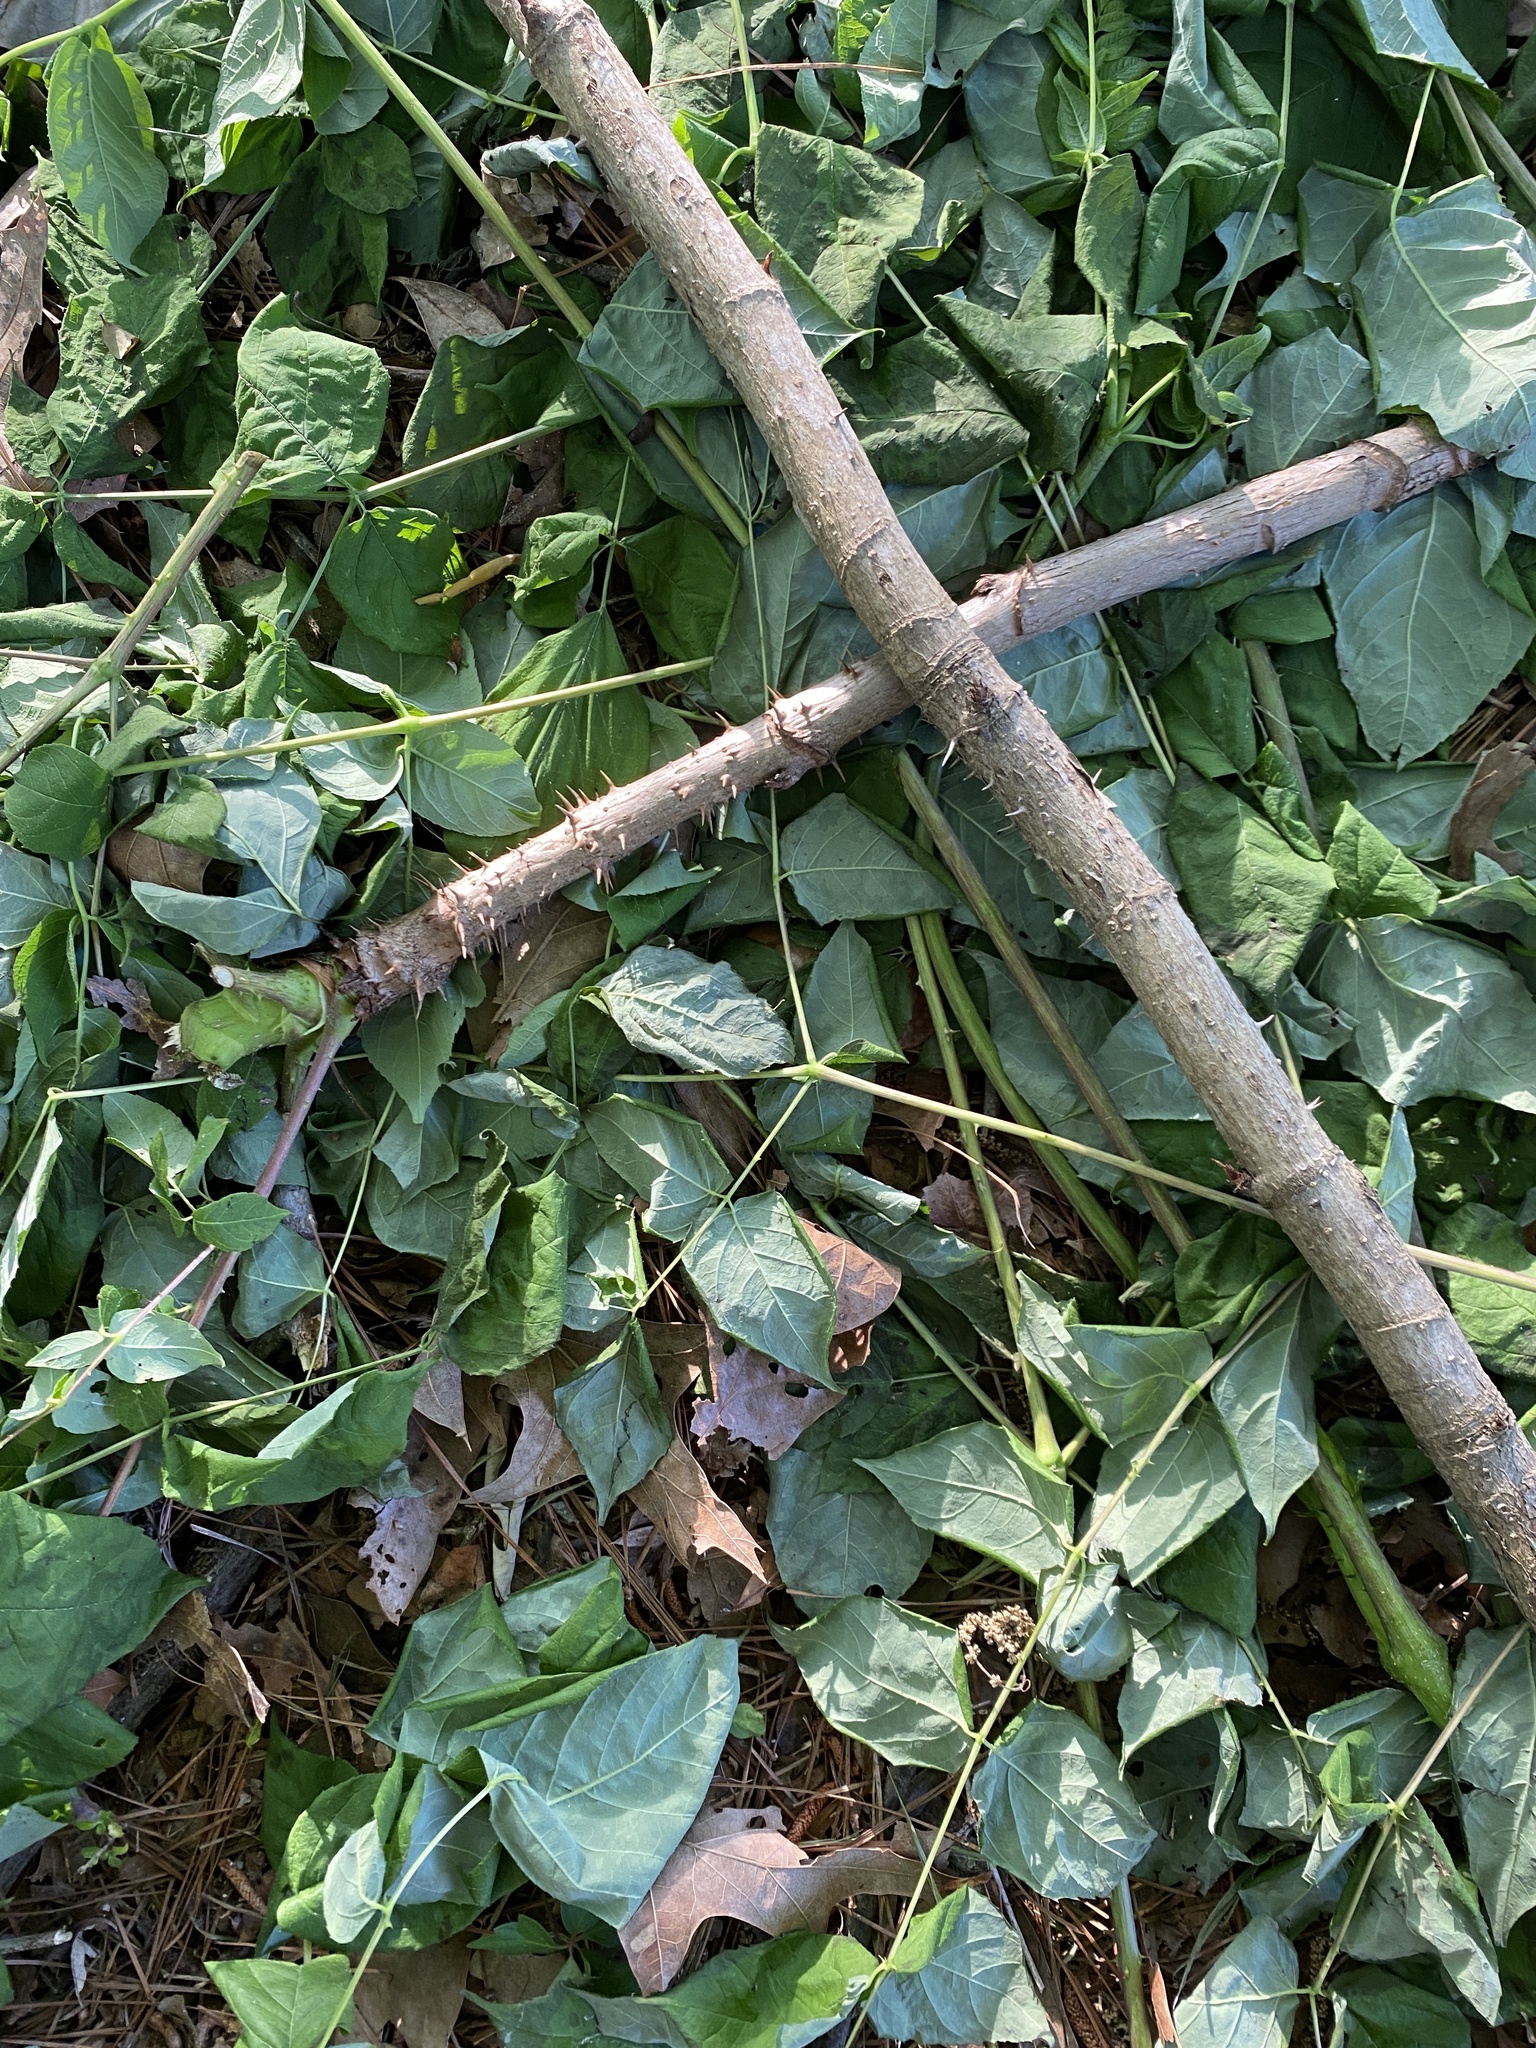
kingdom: Plantae
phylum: Tracheophyta
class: Magnoliopsida
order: Apiales
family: Araliaceae
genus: Aralia
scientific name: Aralia spinosa
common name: Hercules'-club
